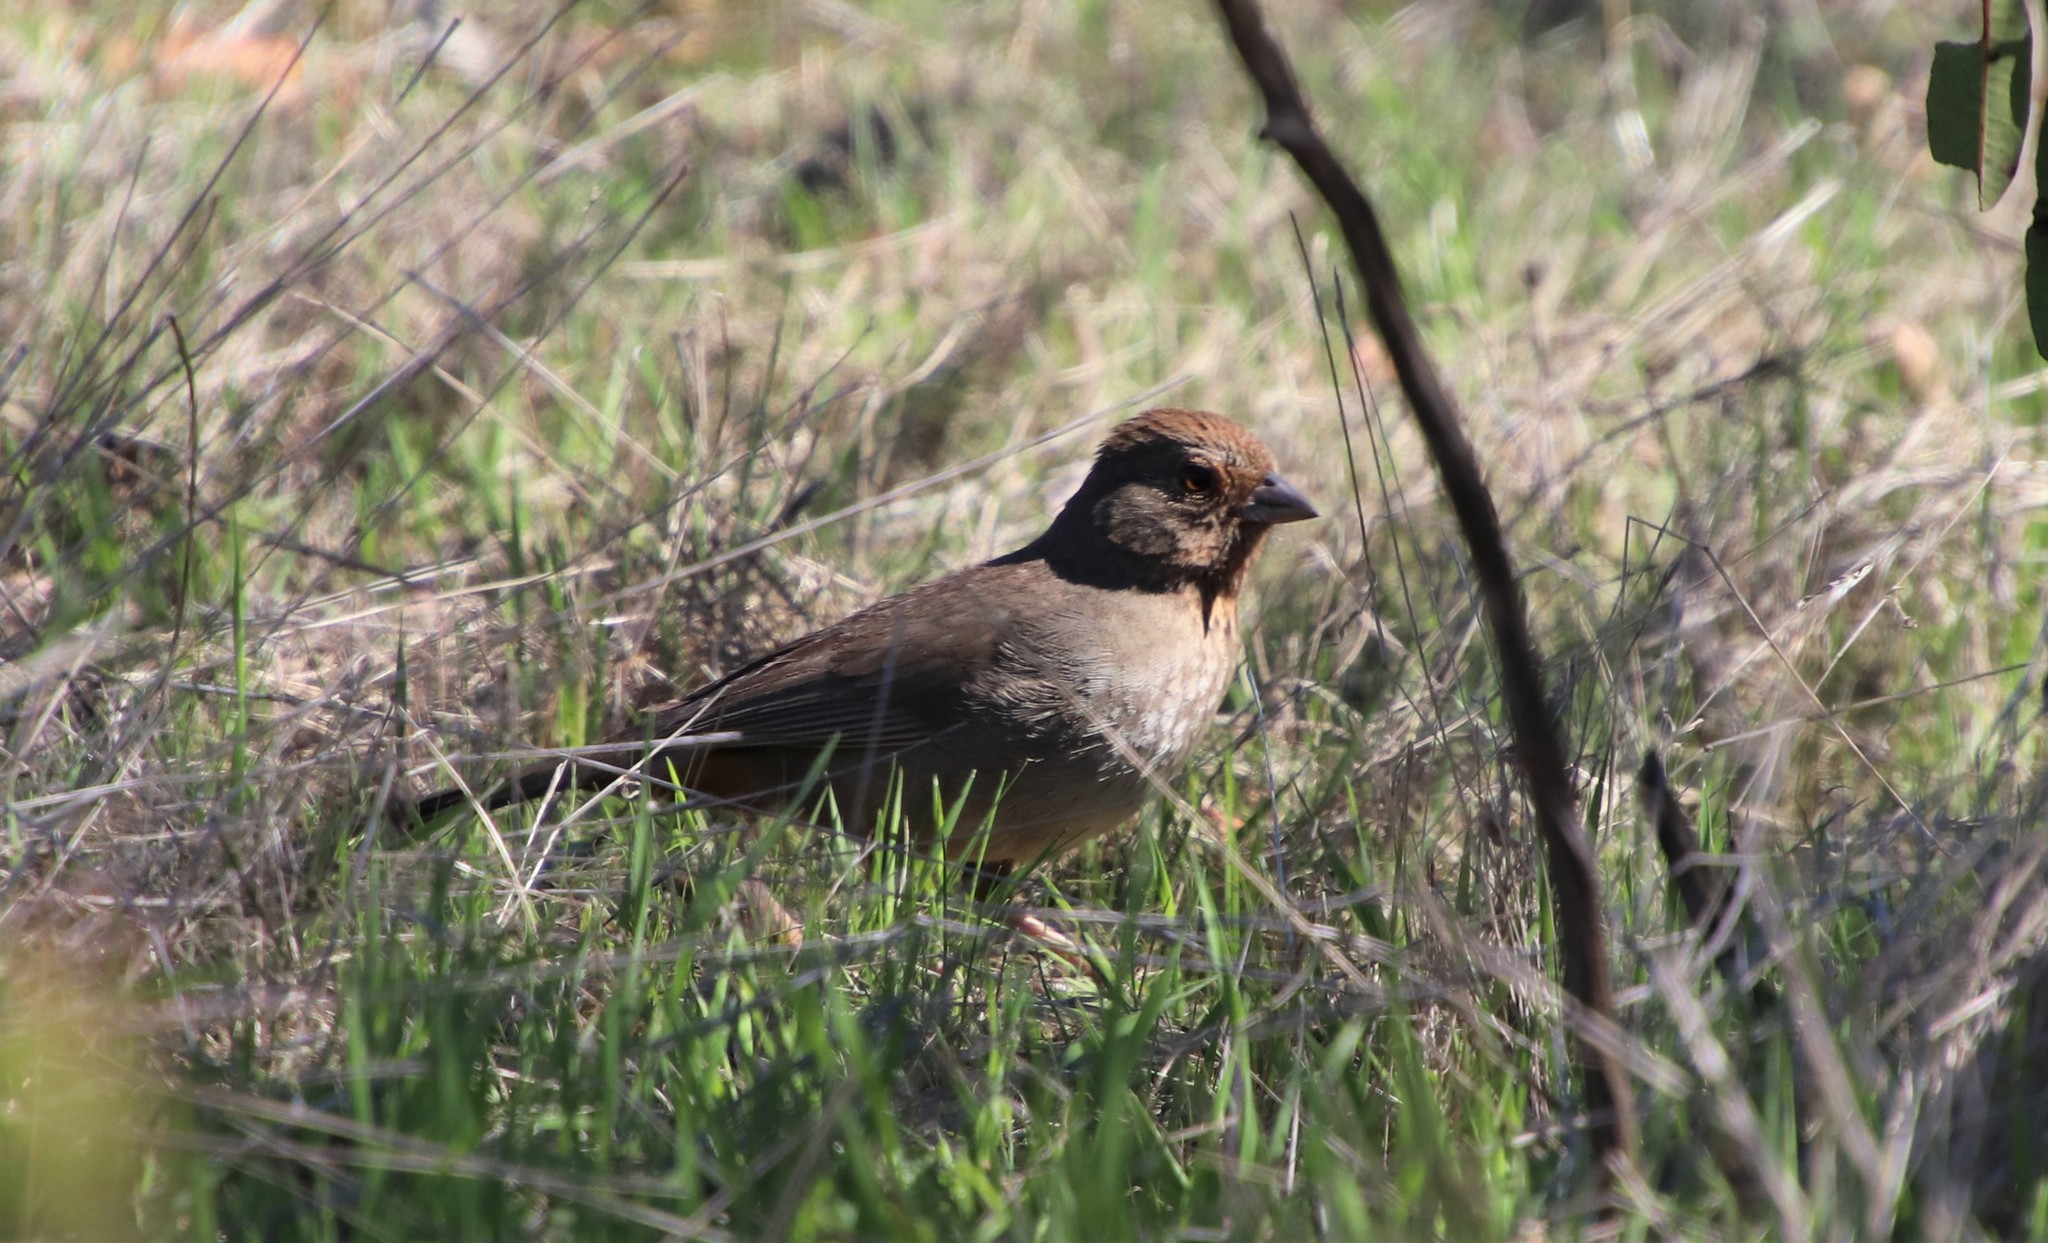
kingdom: Animalia
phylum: Chordata
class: Aves
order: Passeriformes
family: Passerellidae
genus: Melozone
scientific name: Melozone crissalis
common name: California towhee
